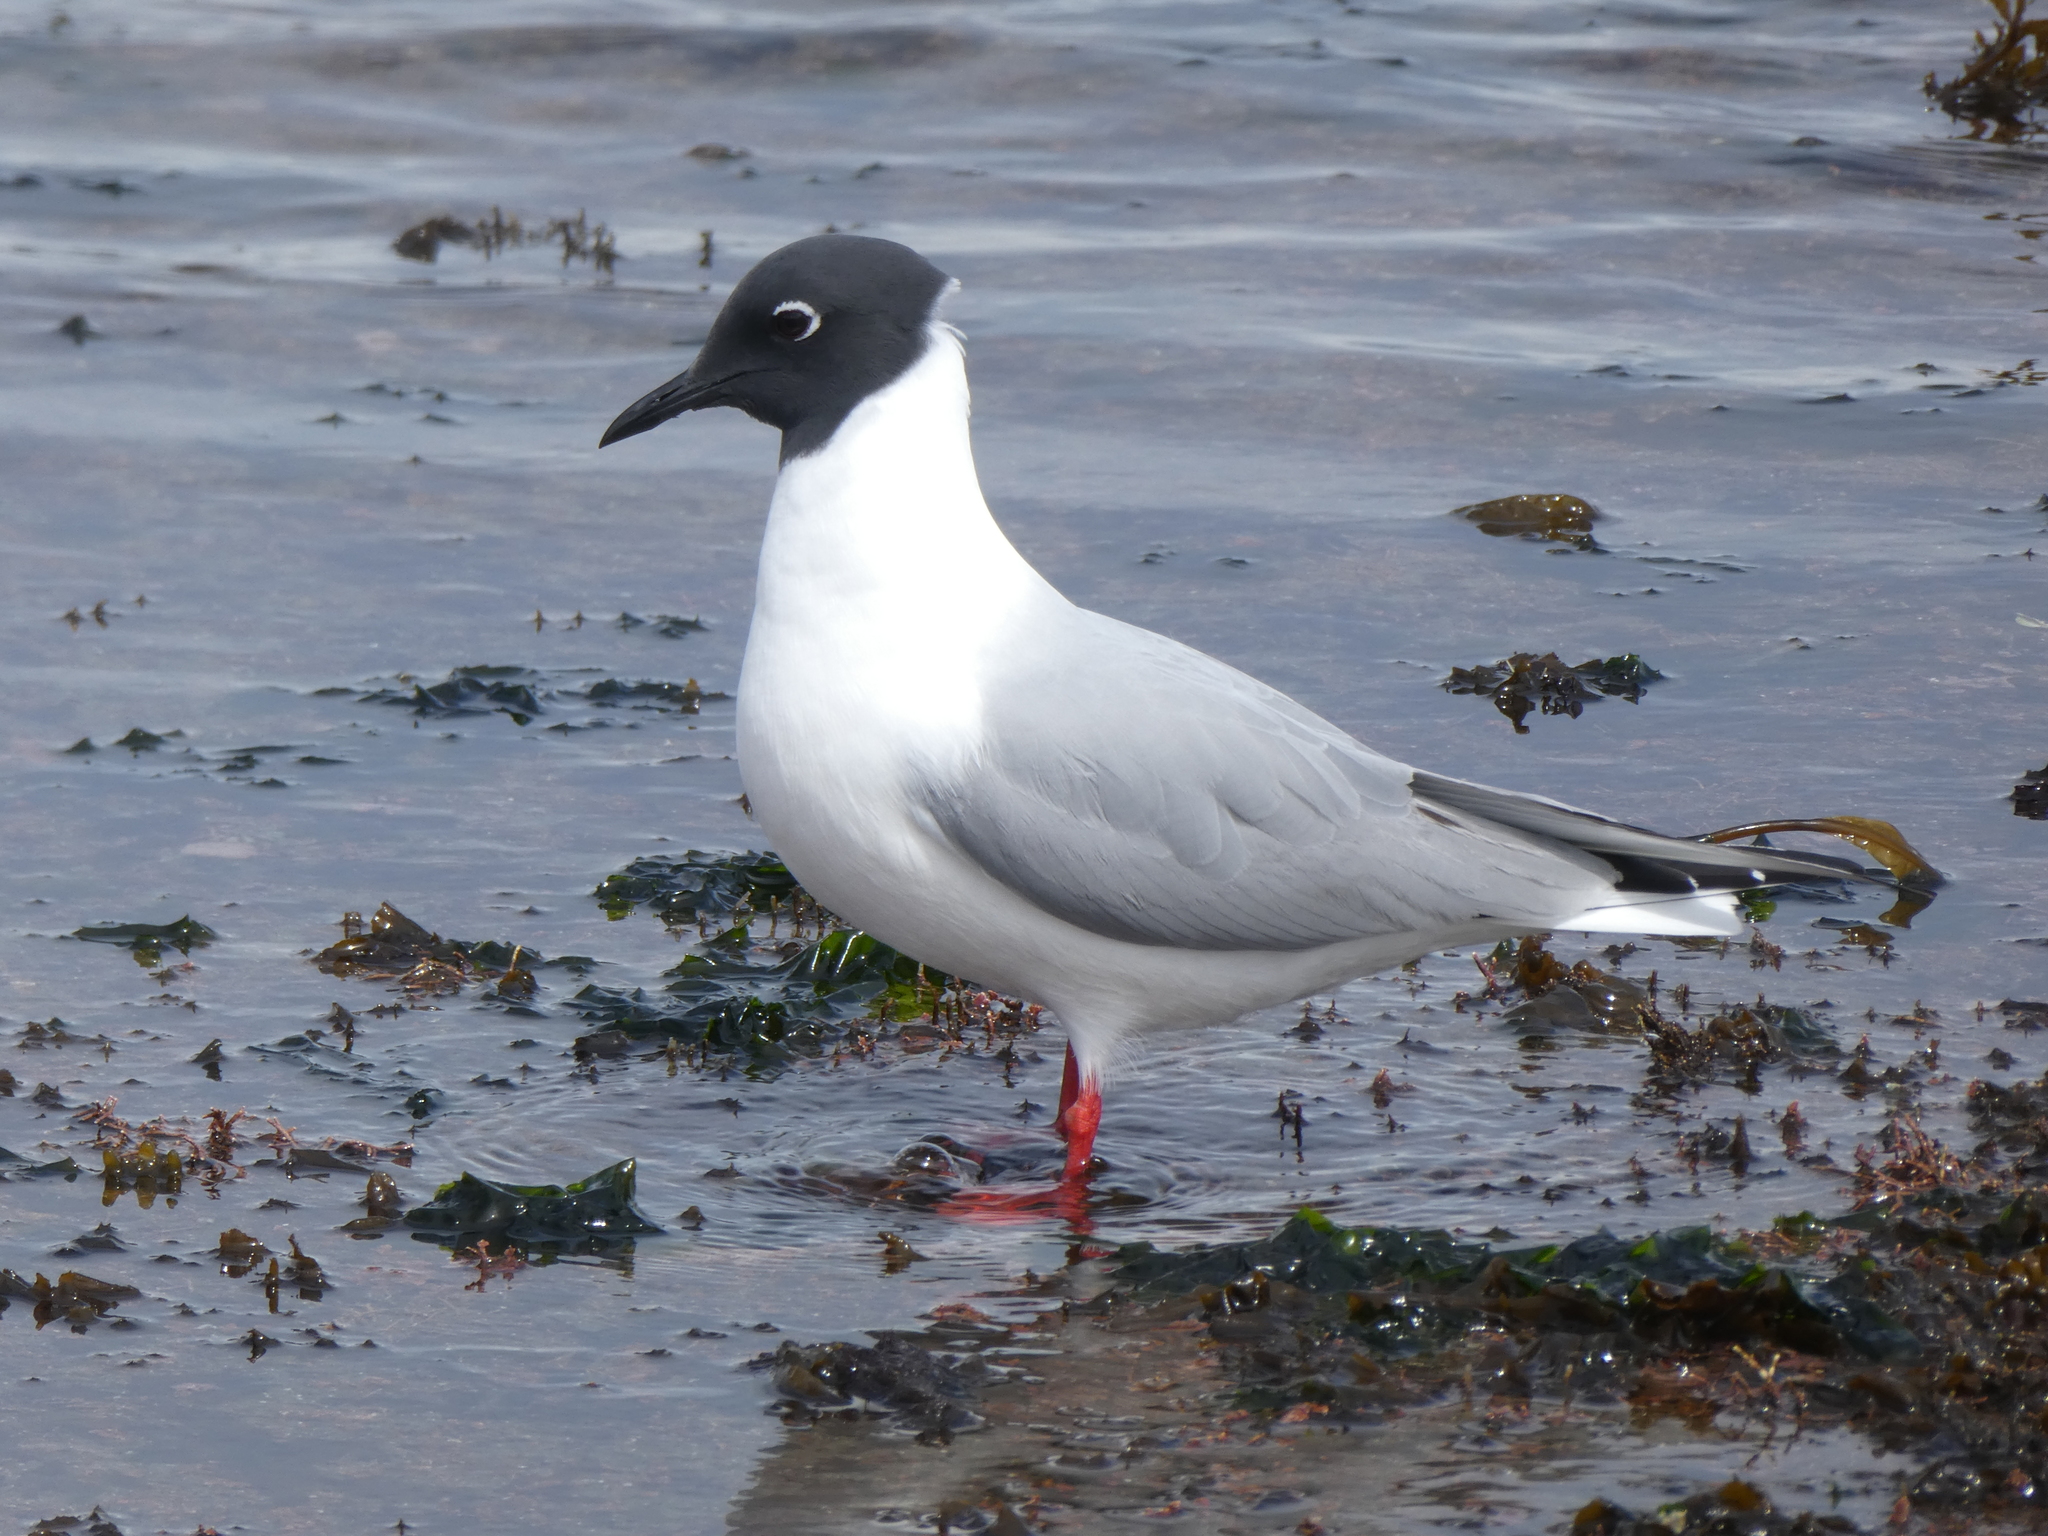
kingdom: Animalia
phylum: Chordata
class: Aves
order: Charadriiformes
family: Laridae
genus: Chroicocephalus
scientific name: Chroicocephalus philadelphia
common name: Bonaparte's gull
